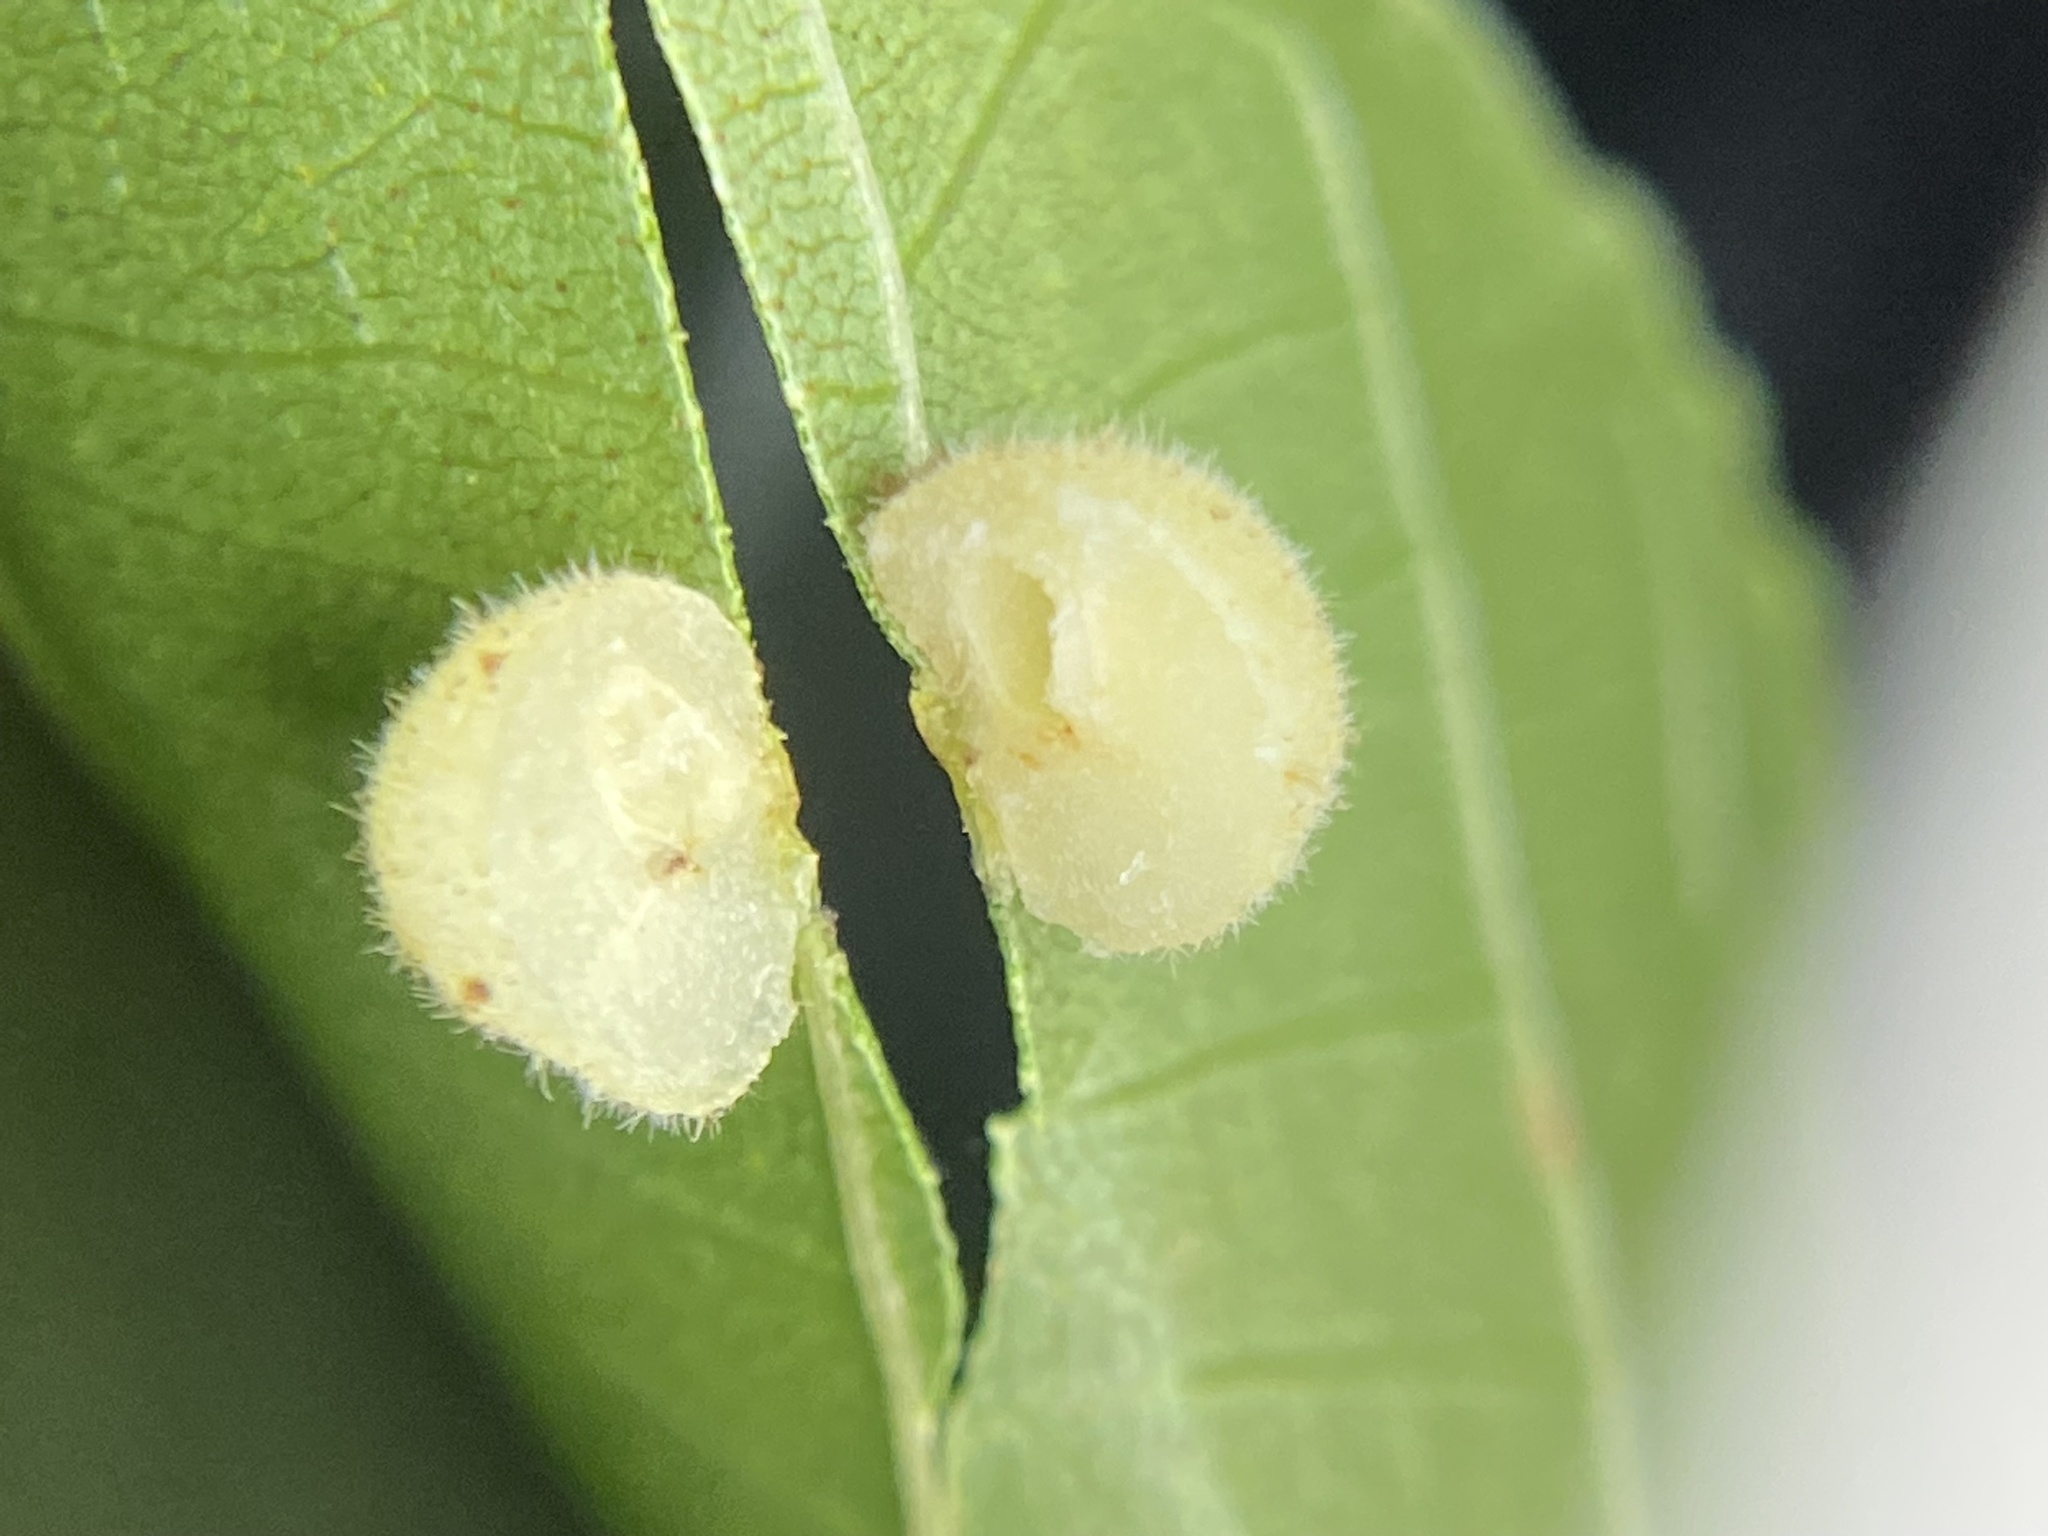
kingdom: Animalia
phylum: Arthropoda
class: Insecta
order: Diptera
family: Cecidomyiidae
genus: Caryomyia
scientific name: Caryomyia persicoides
